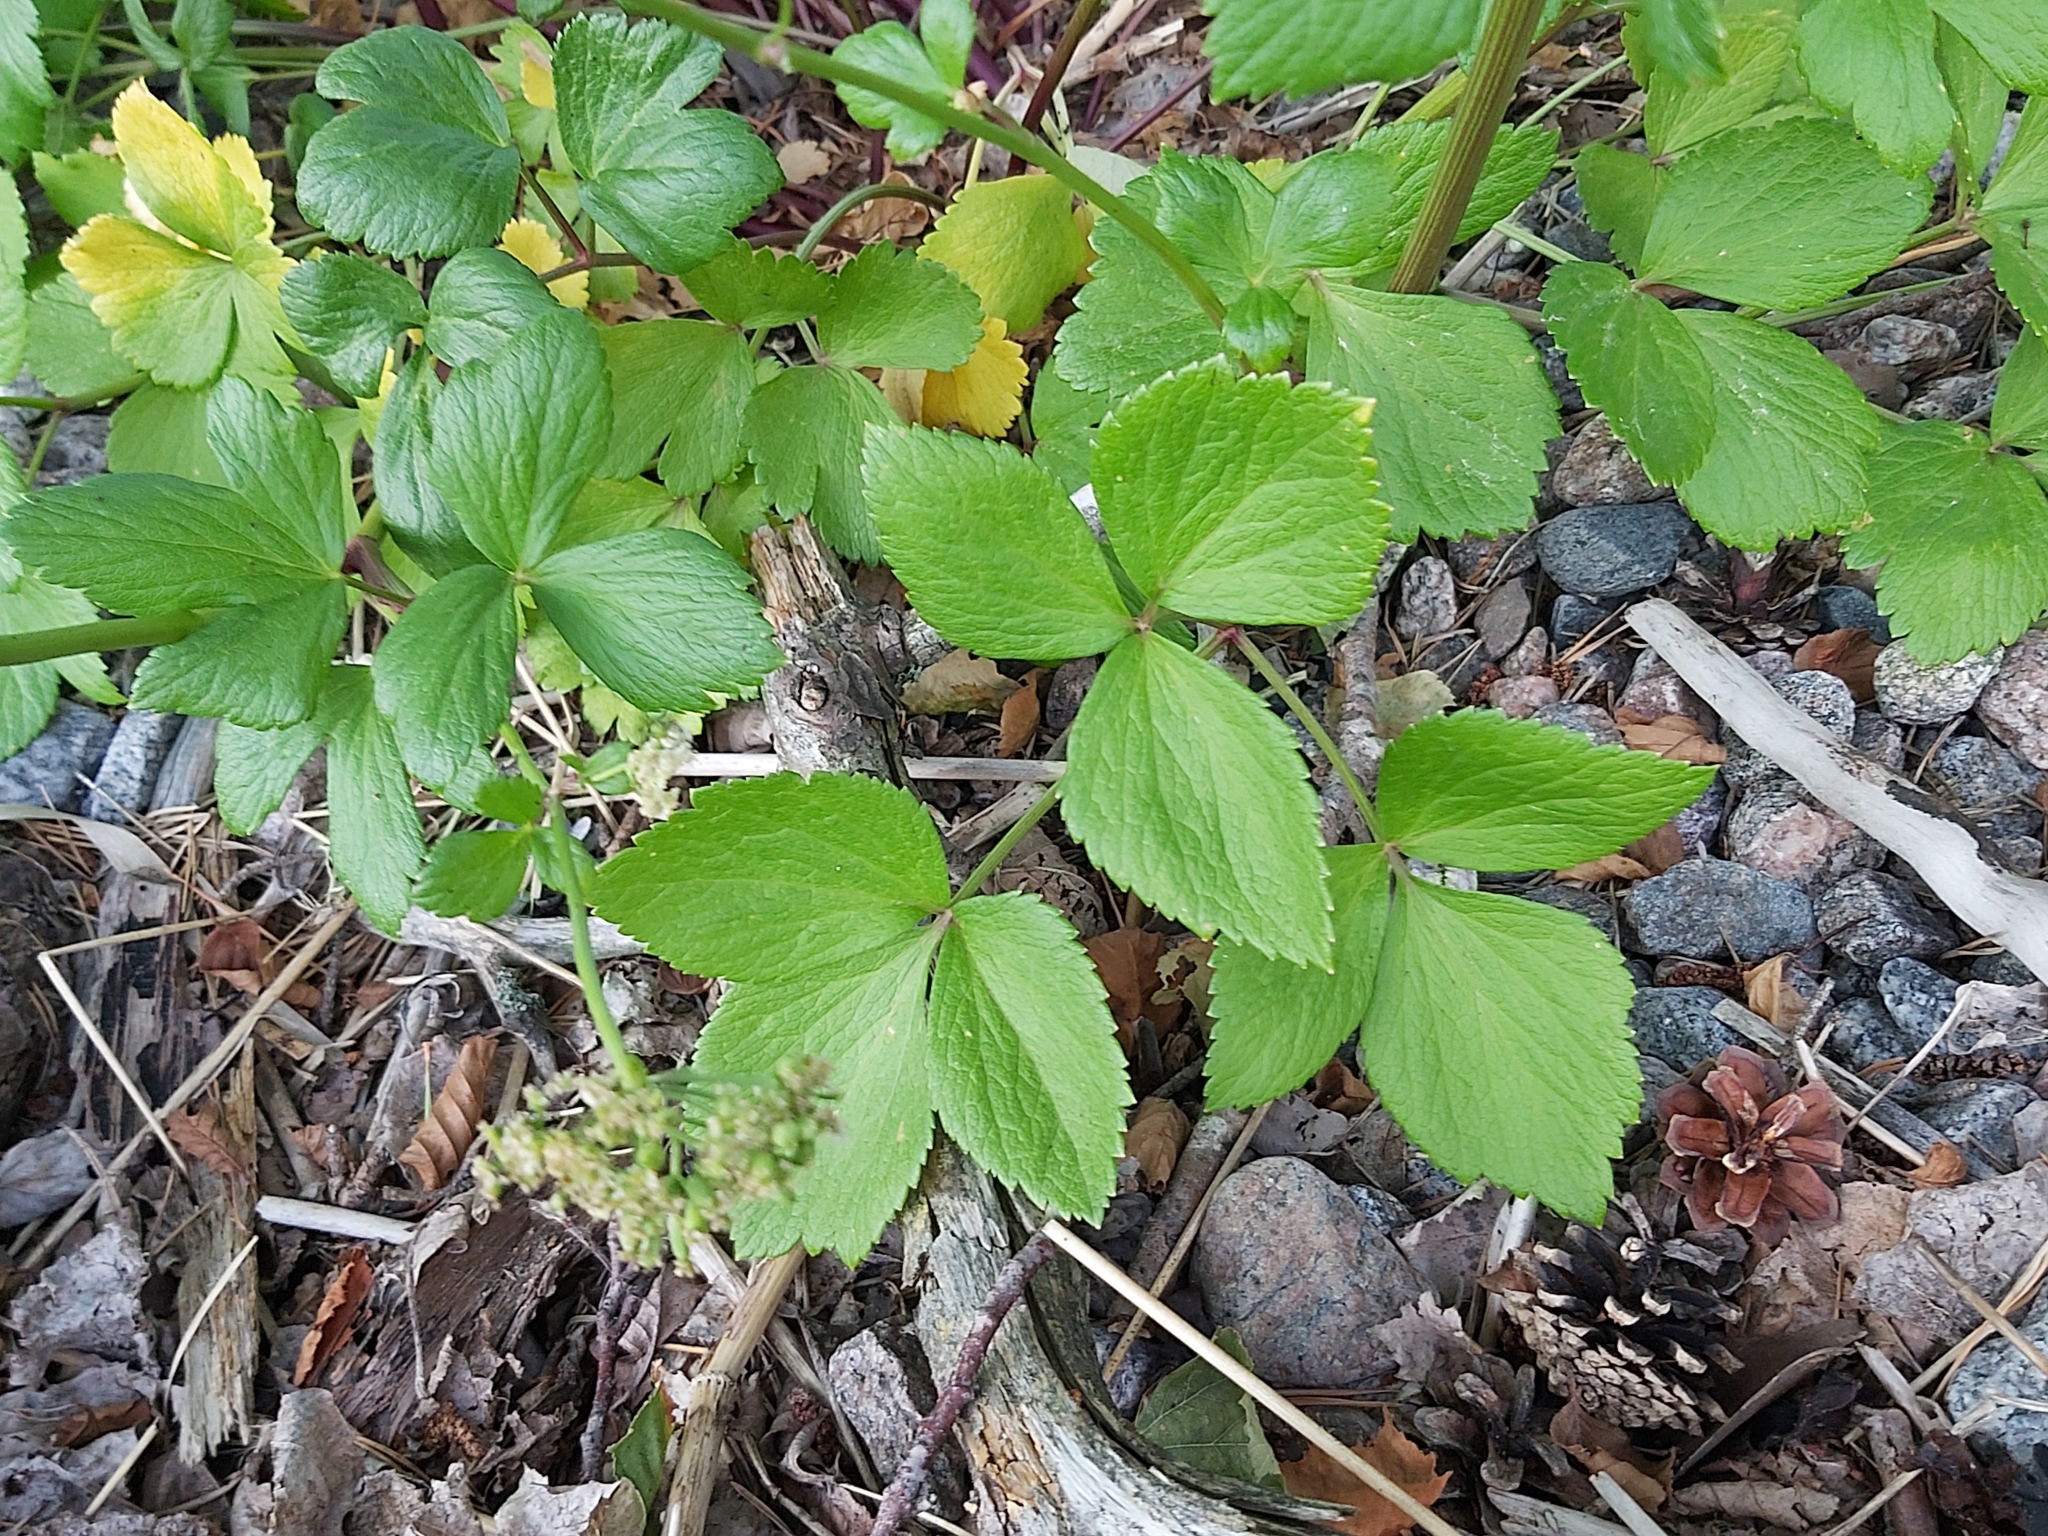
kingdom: Plantae
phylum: Tracheophyta
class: Magnoliopsida
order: Apiales
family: Apiaceae
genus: Ligusticum
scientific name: Ligusticum scothicum
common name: Beach lovage
